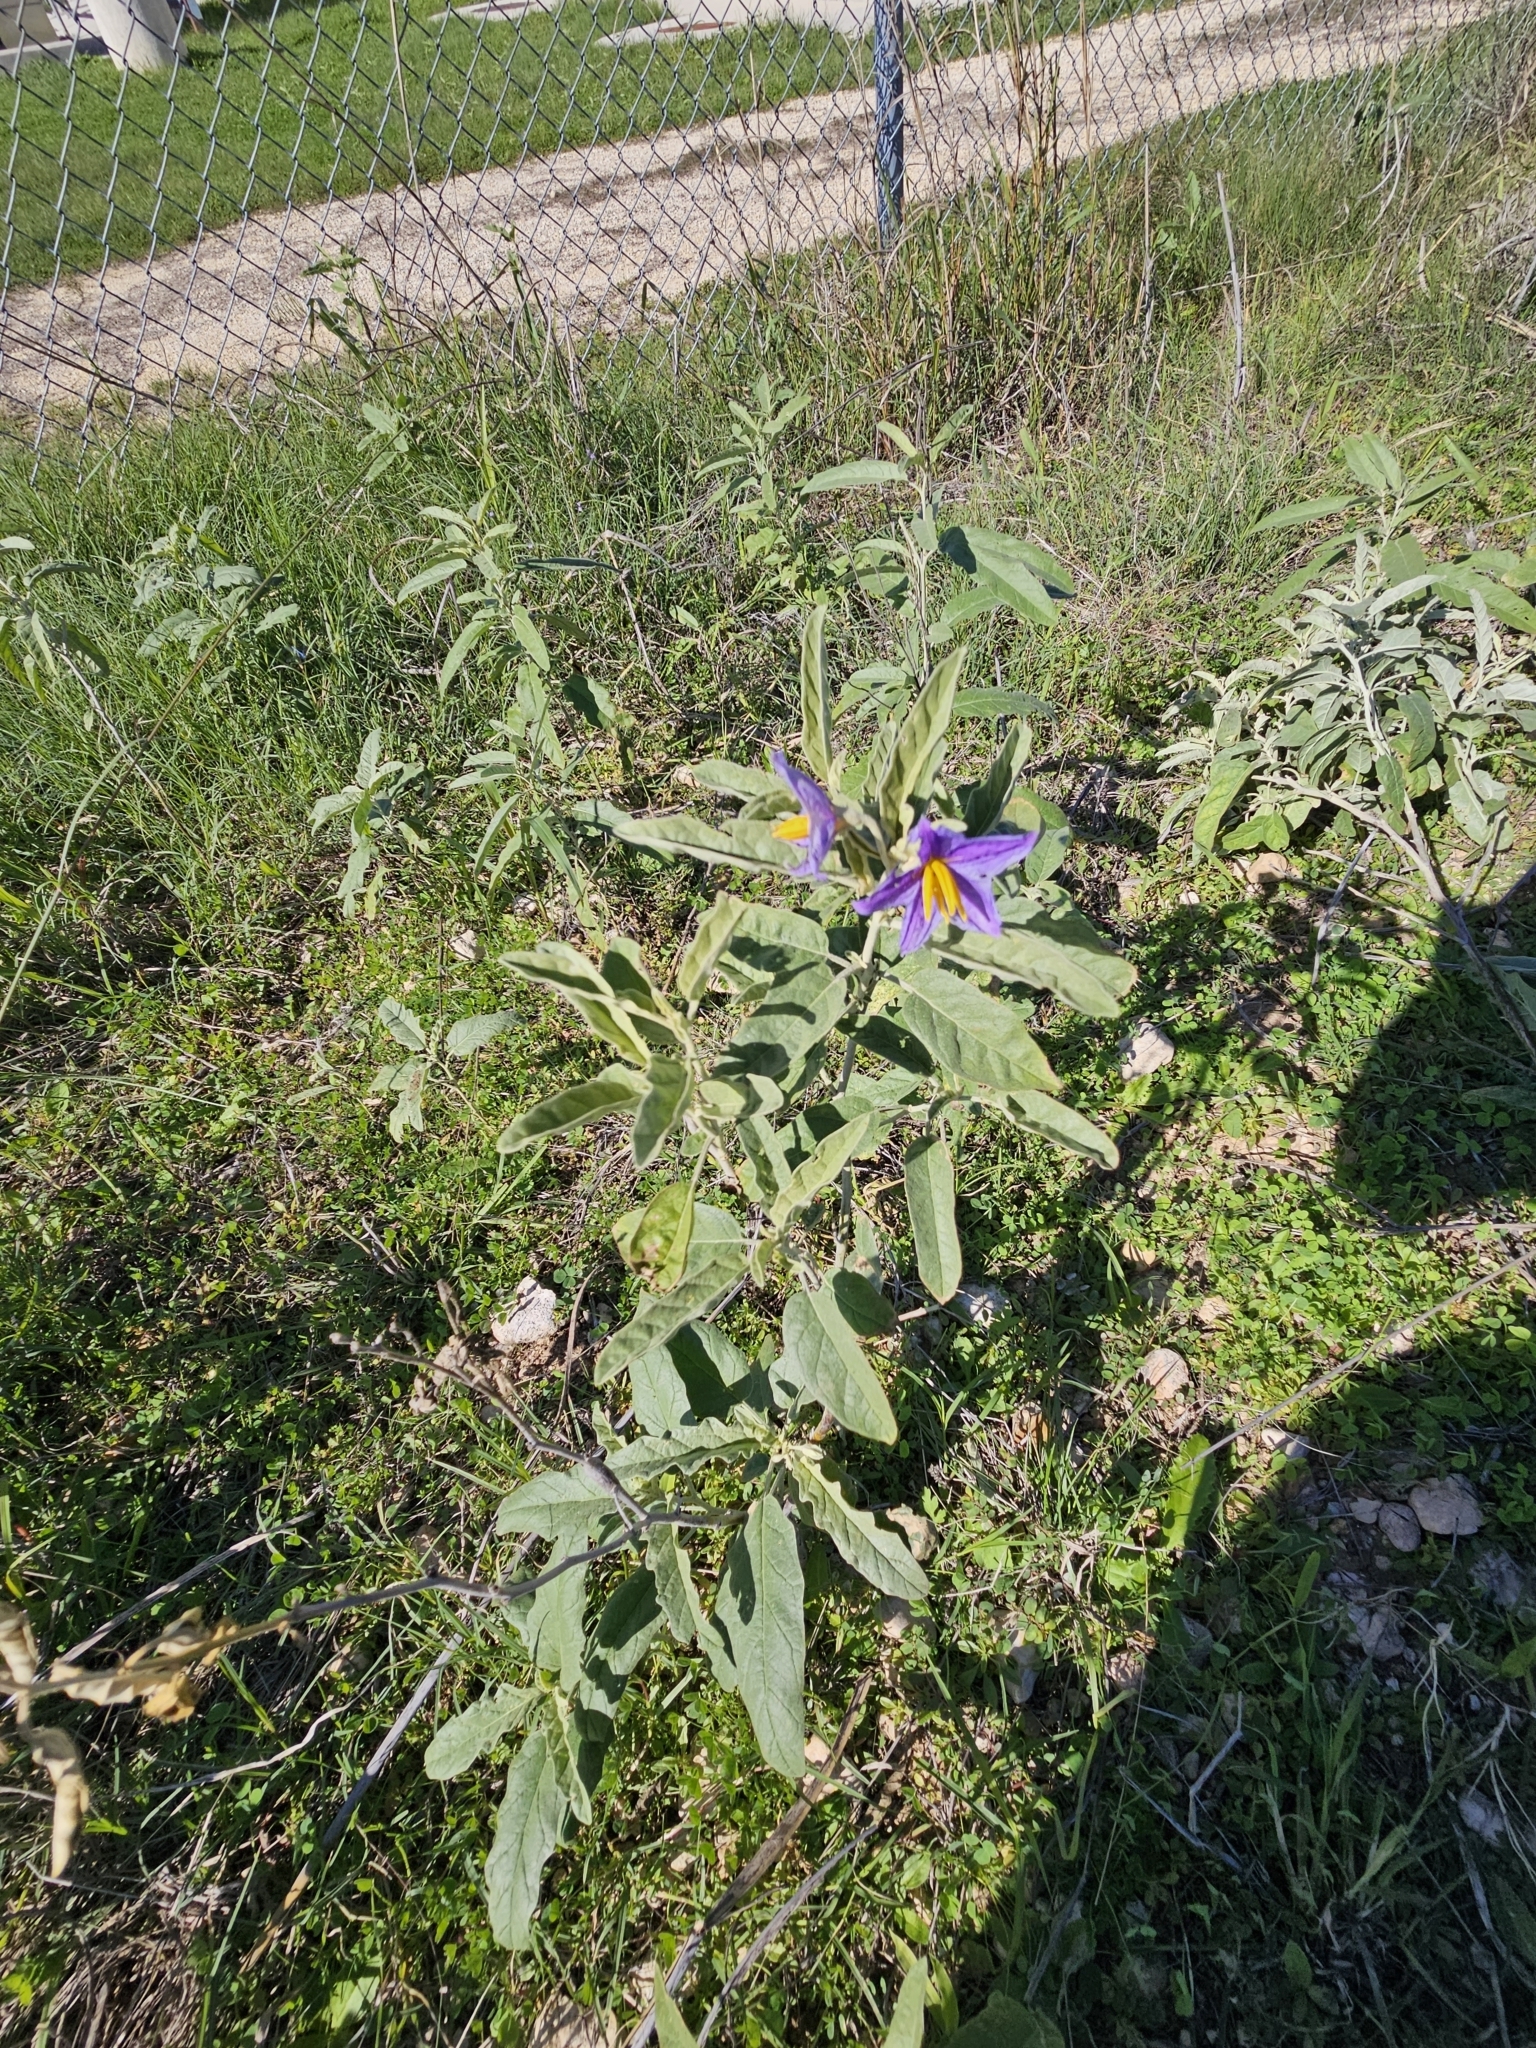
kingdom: Plantae
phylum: Tracheophyta
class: Magnoliopsida
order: Solanales
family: Solanaceae
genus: Solanum
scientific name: Solanum elaeagnifolium
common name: Silverleaf nightshade
